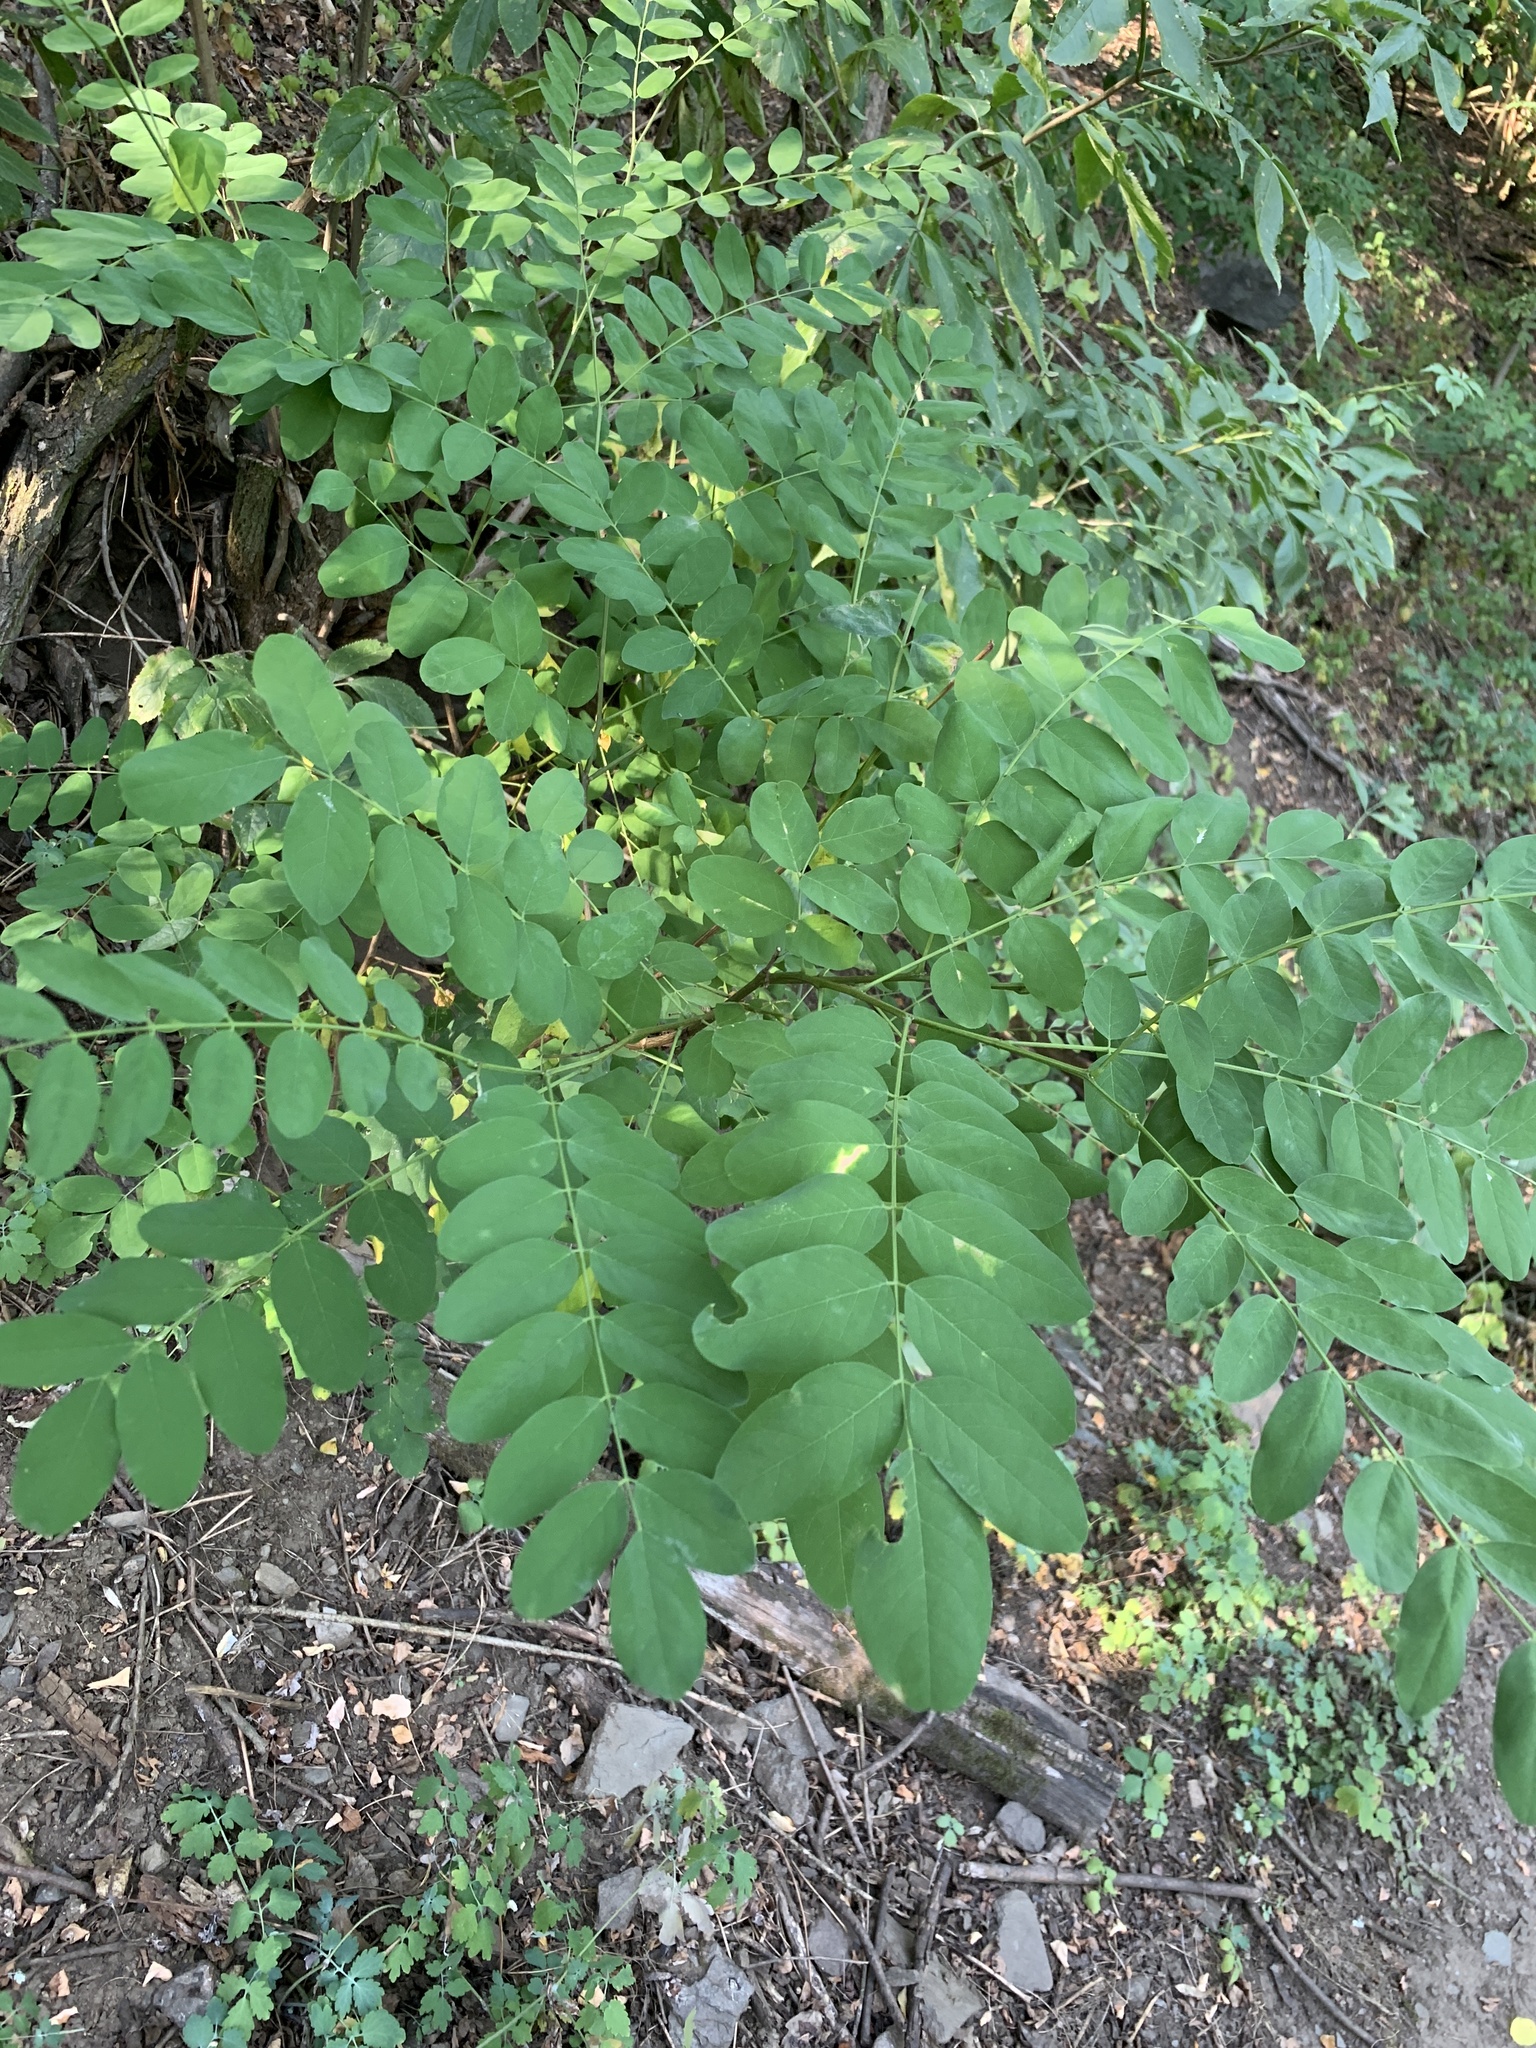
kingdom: Plantae
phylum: Tracheophyta
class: Magnoliopsida
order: Fabales
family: Fabaceae
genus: Robinia
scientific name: Robinia pseudoacacia
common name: Black locust
